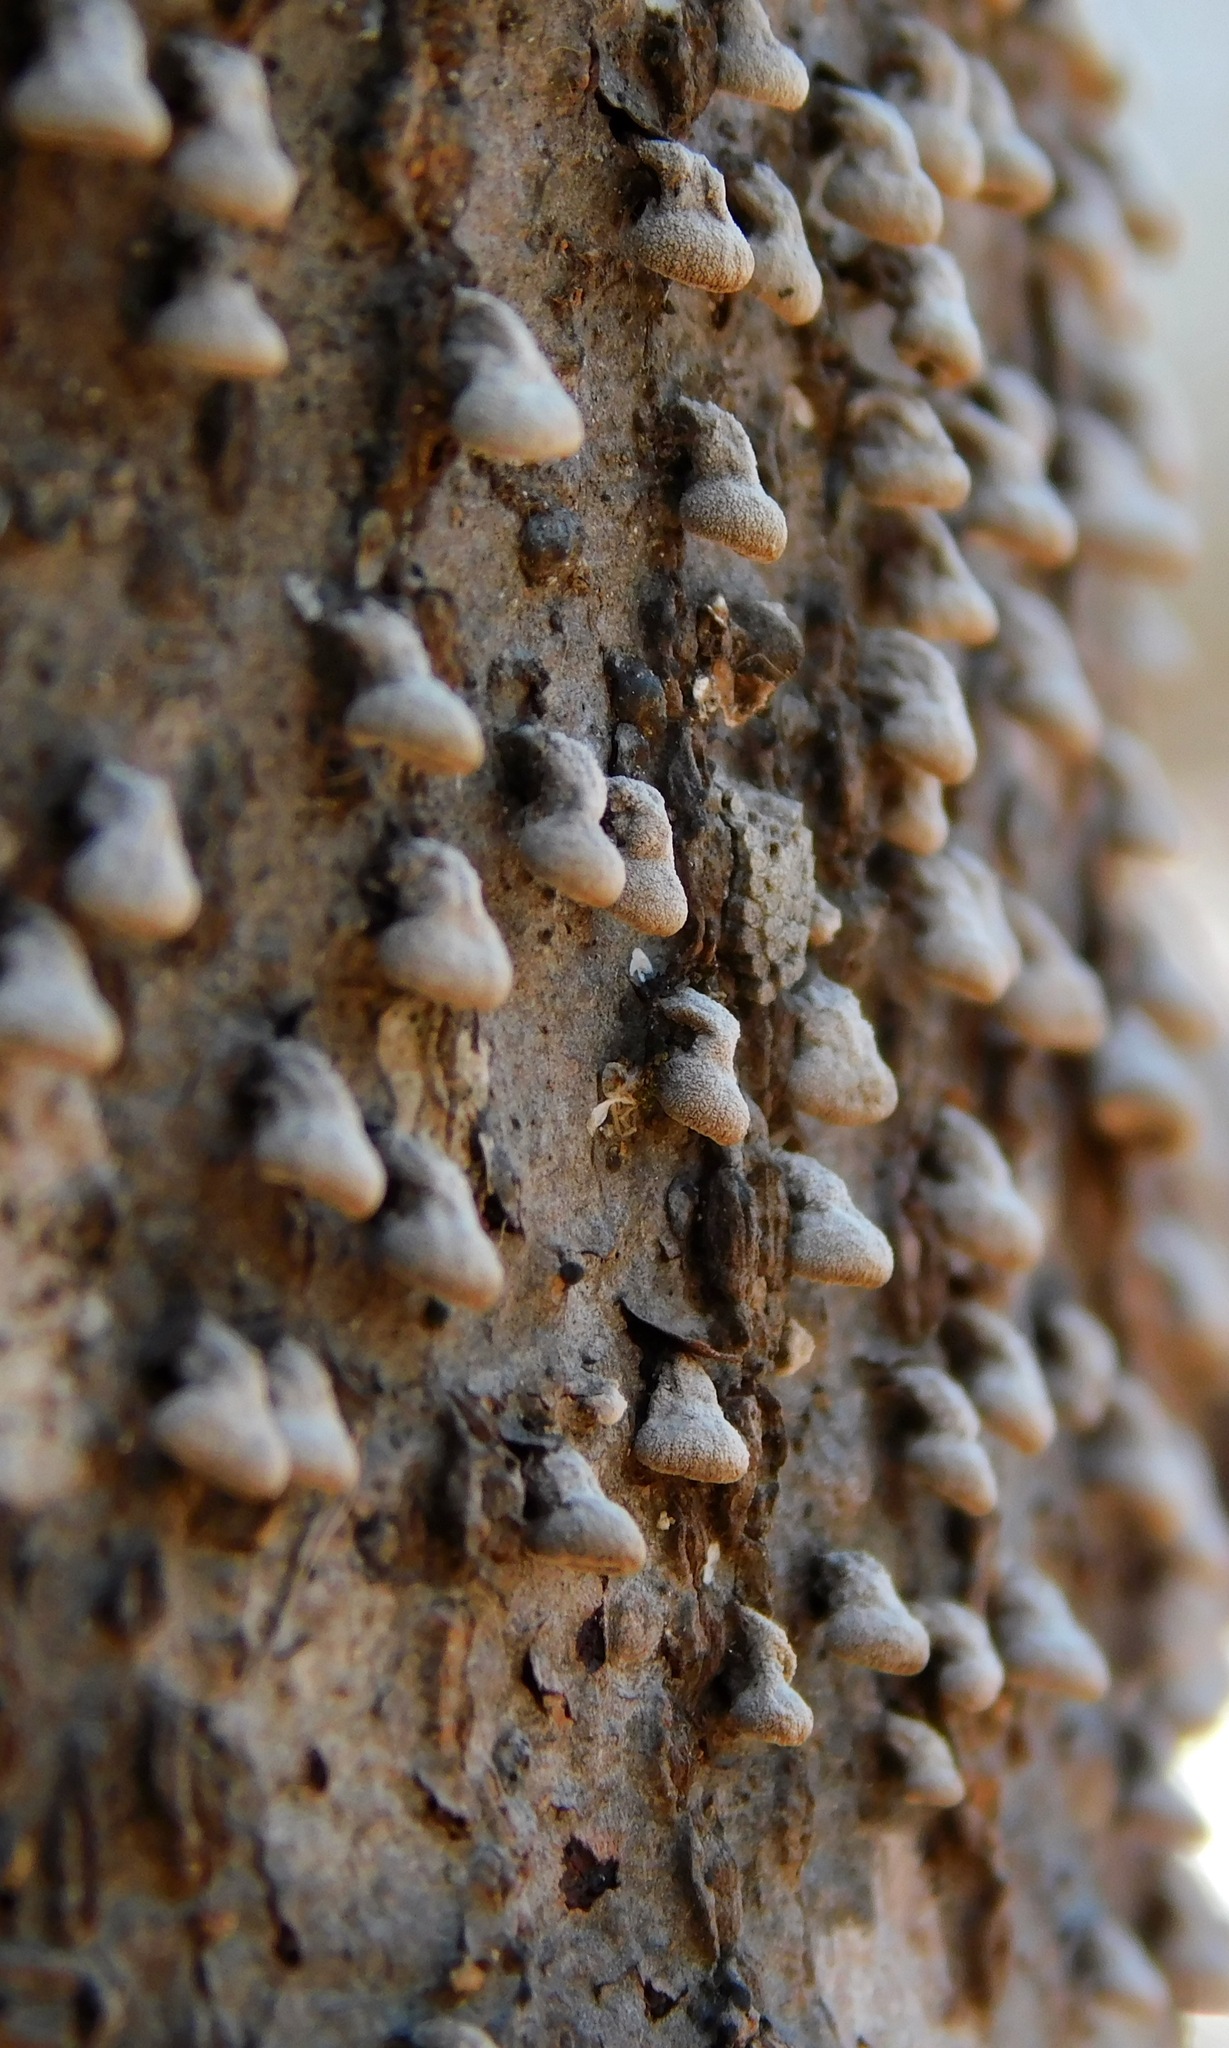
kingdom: Fungi
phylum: Basidiomycota
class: Agaricomycetes
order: Agaricales
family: Schizophyllaceae
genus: Porodisculus
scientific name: Porodisculus pendulus
